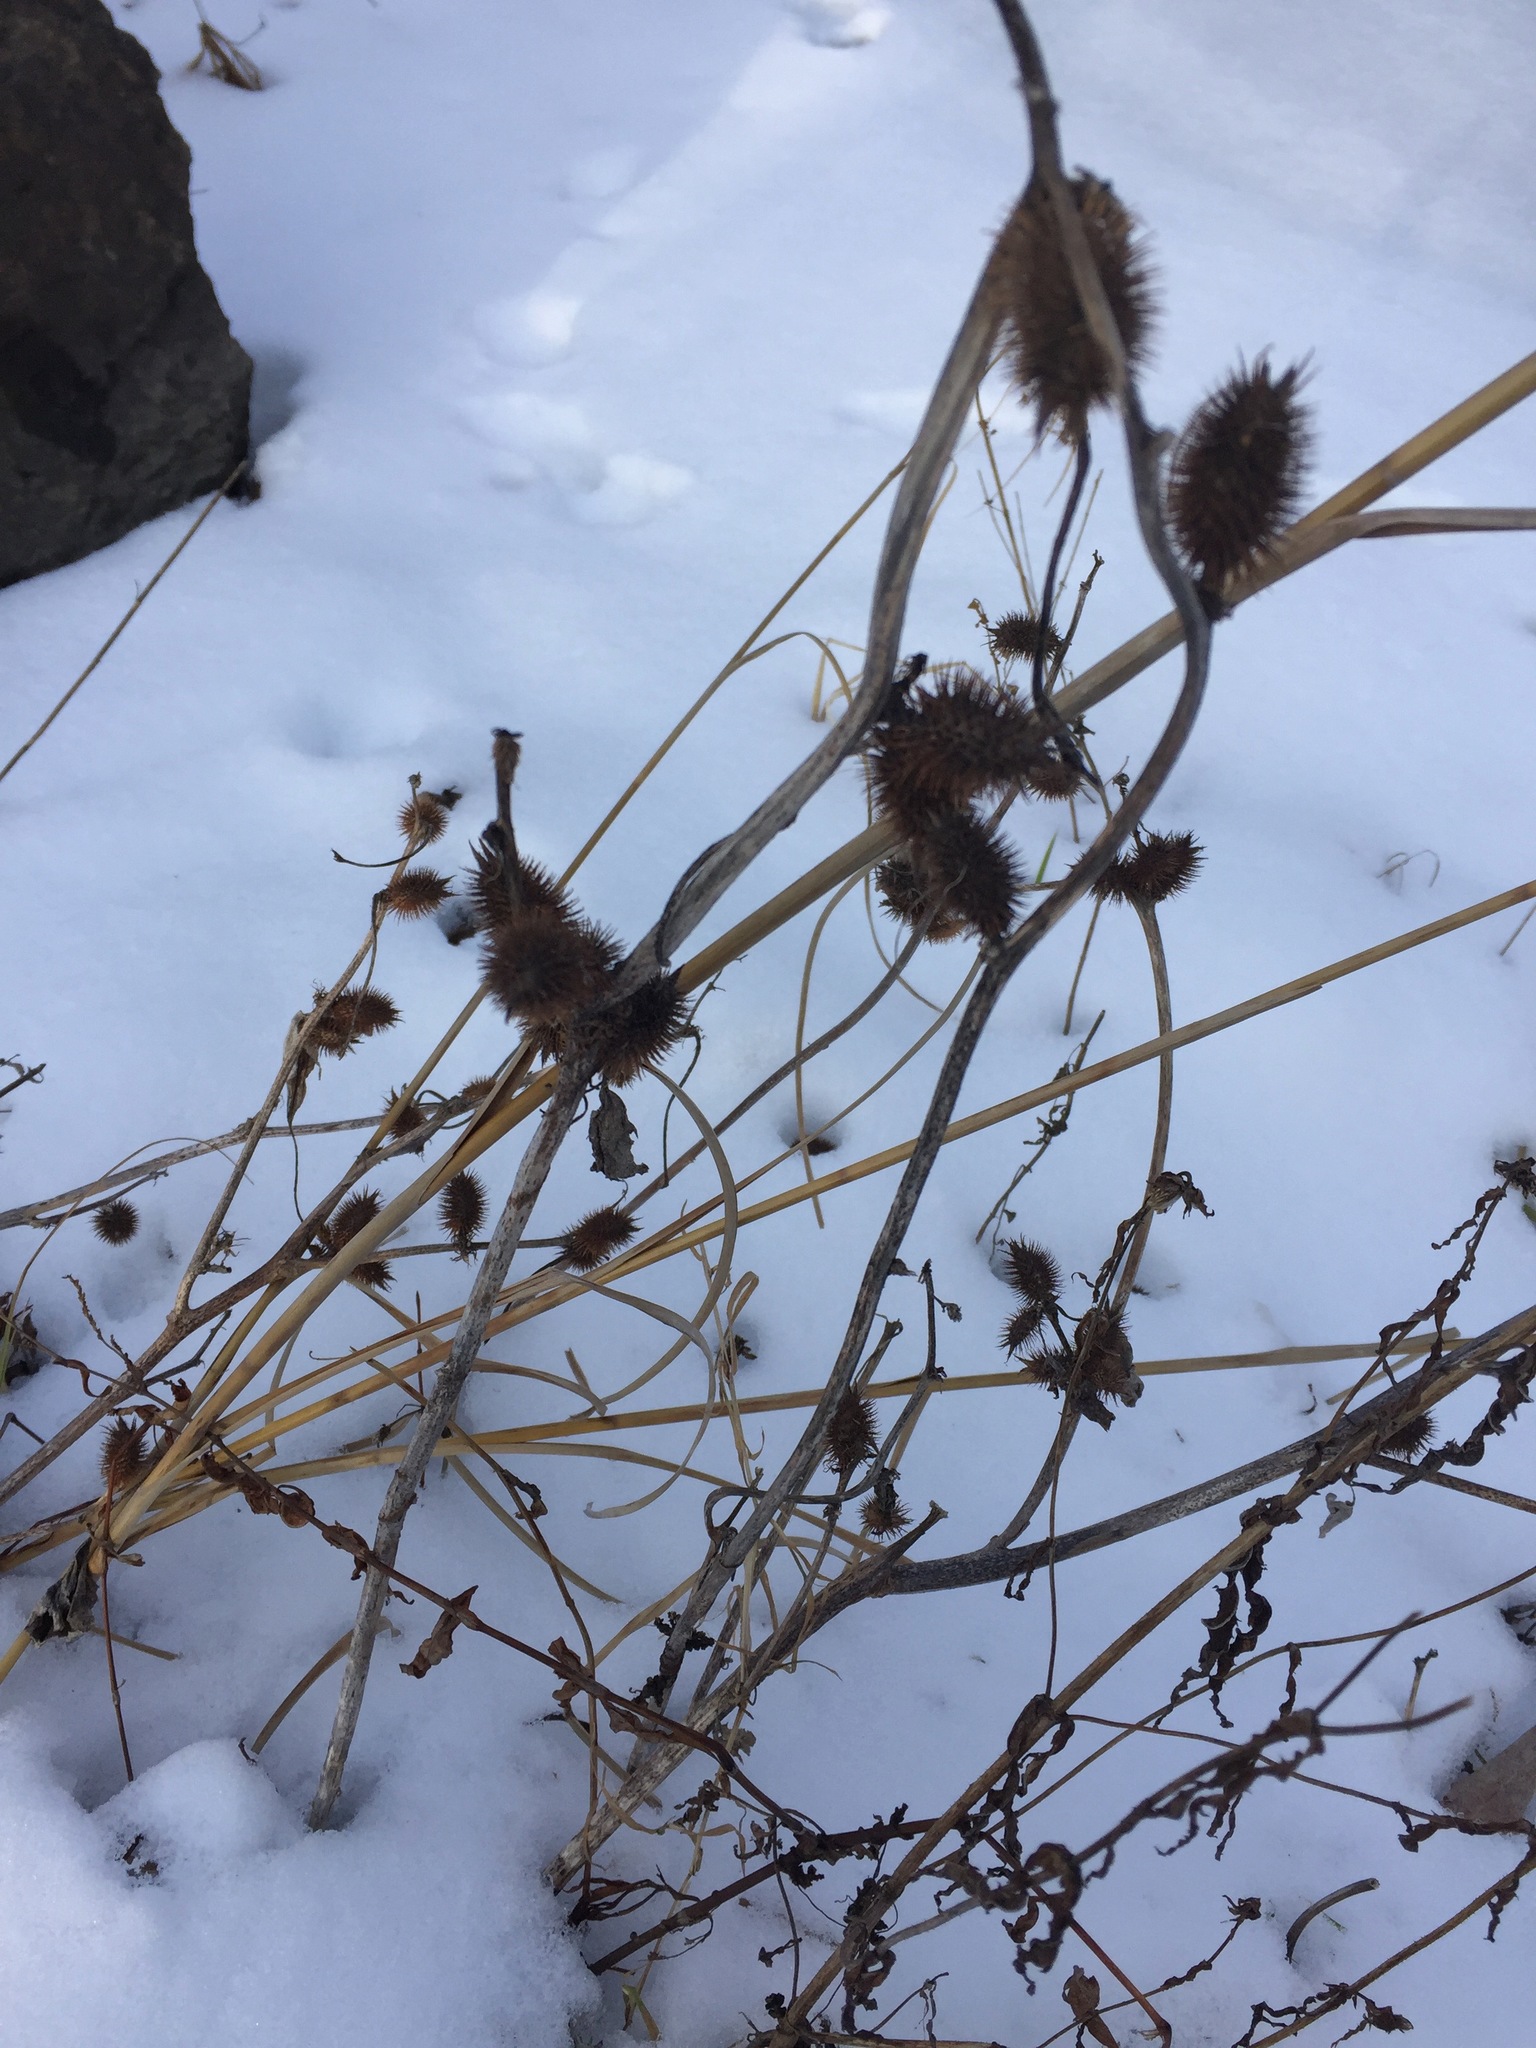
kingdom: Plantae
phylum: Tracheophyta
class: Magnoliopsida
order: Asterales
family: Asteraceae
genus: Xanthium
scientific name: Xanthium strumarium
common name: Rough cocklebur
